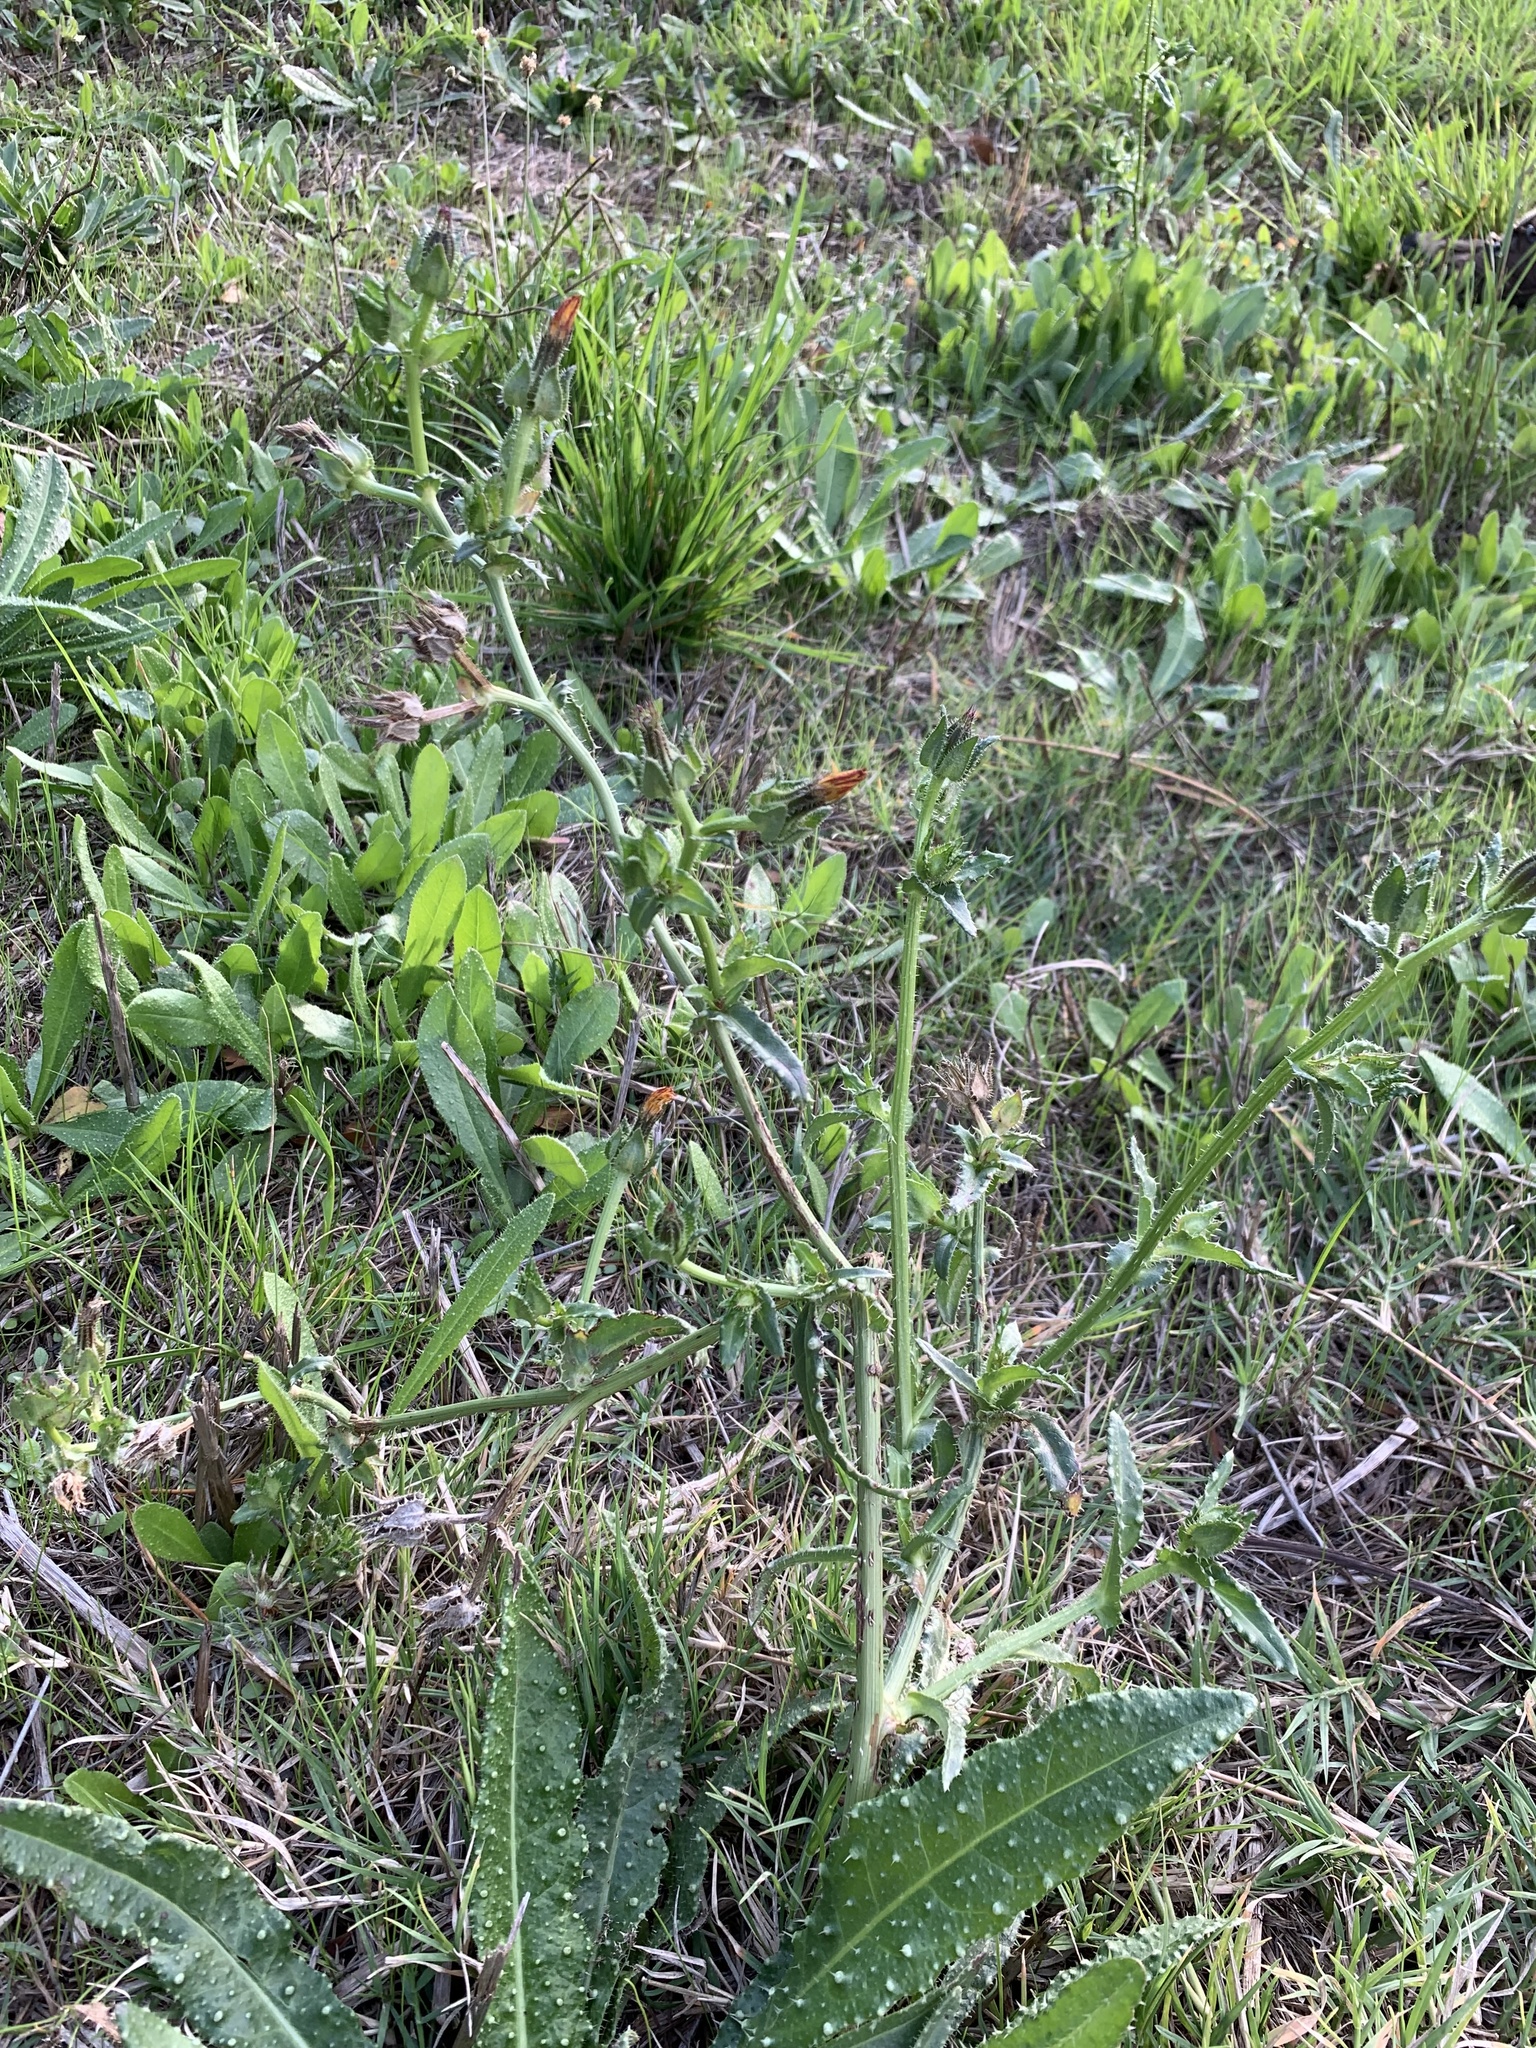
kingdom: Plantae
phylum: Tracheophyta
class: Magnoliopsida
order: Asterales
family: Asteraceae
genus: Helminthotheca
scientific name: Helminthotheca echioides
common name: Ox-tongue
